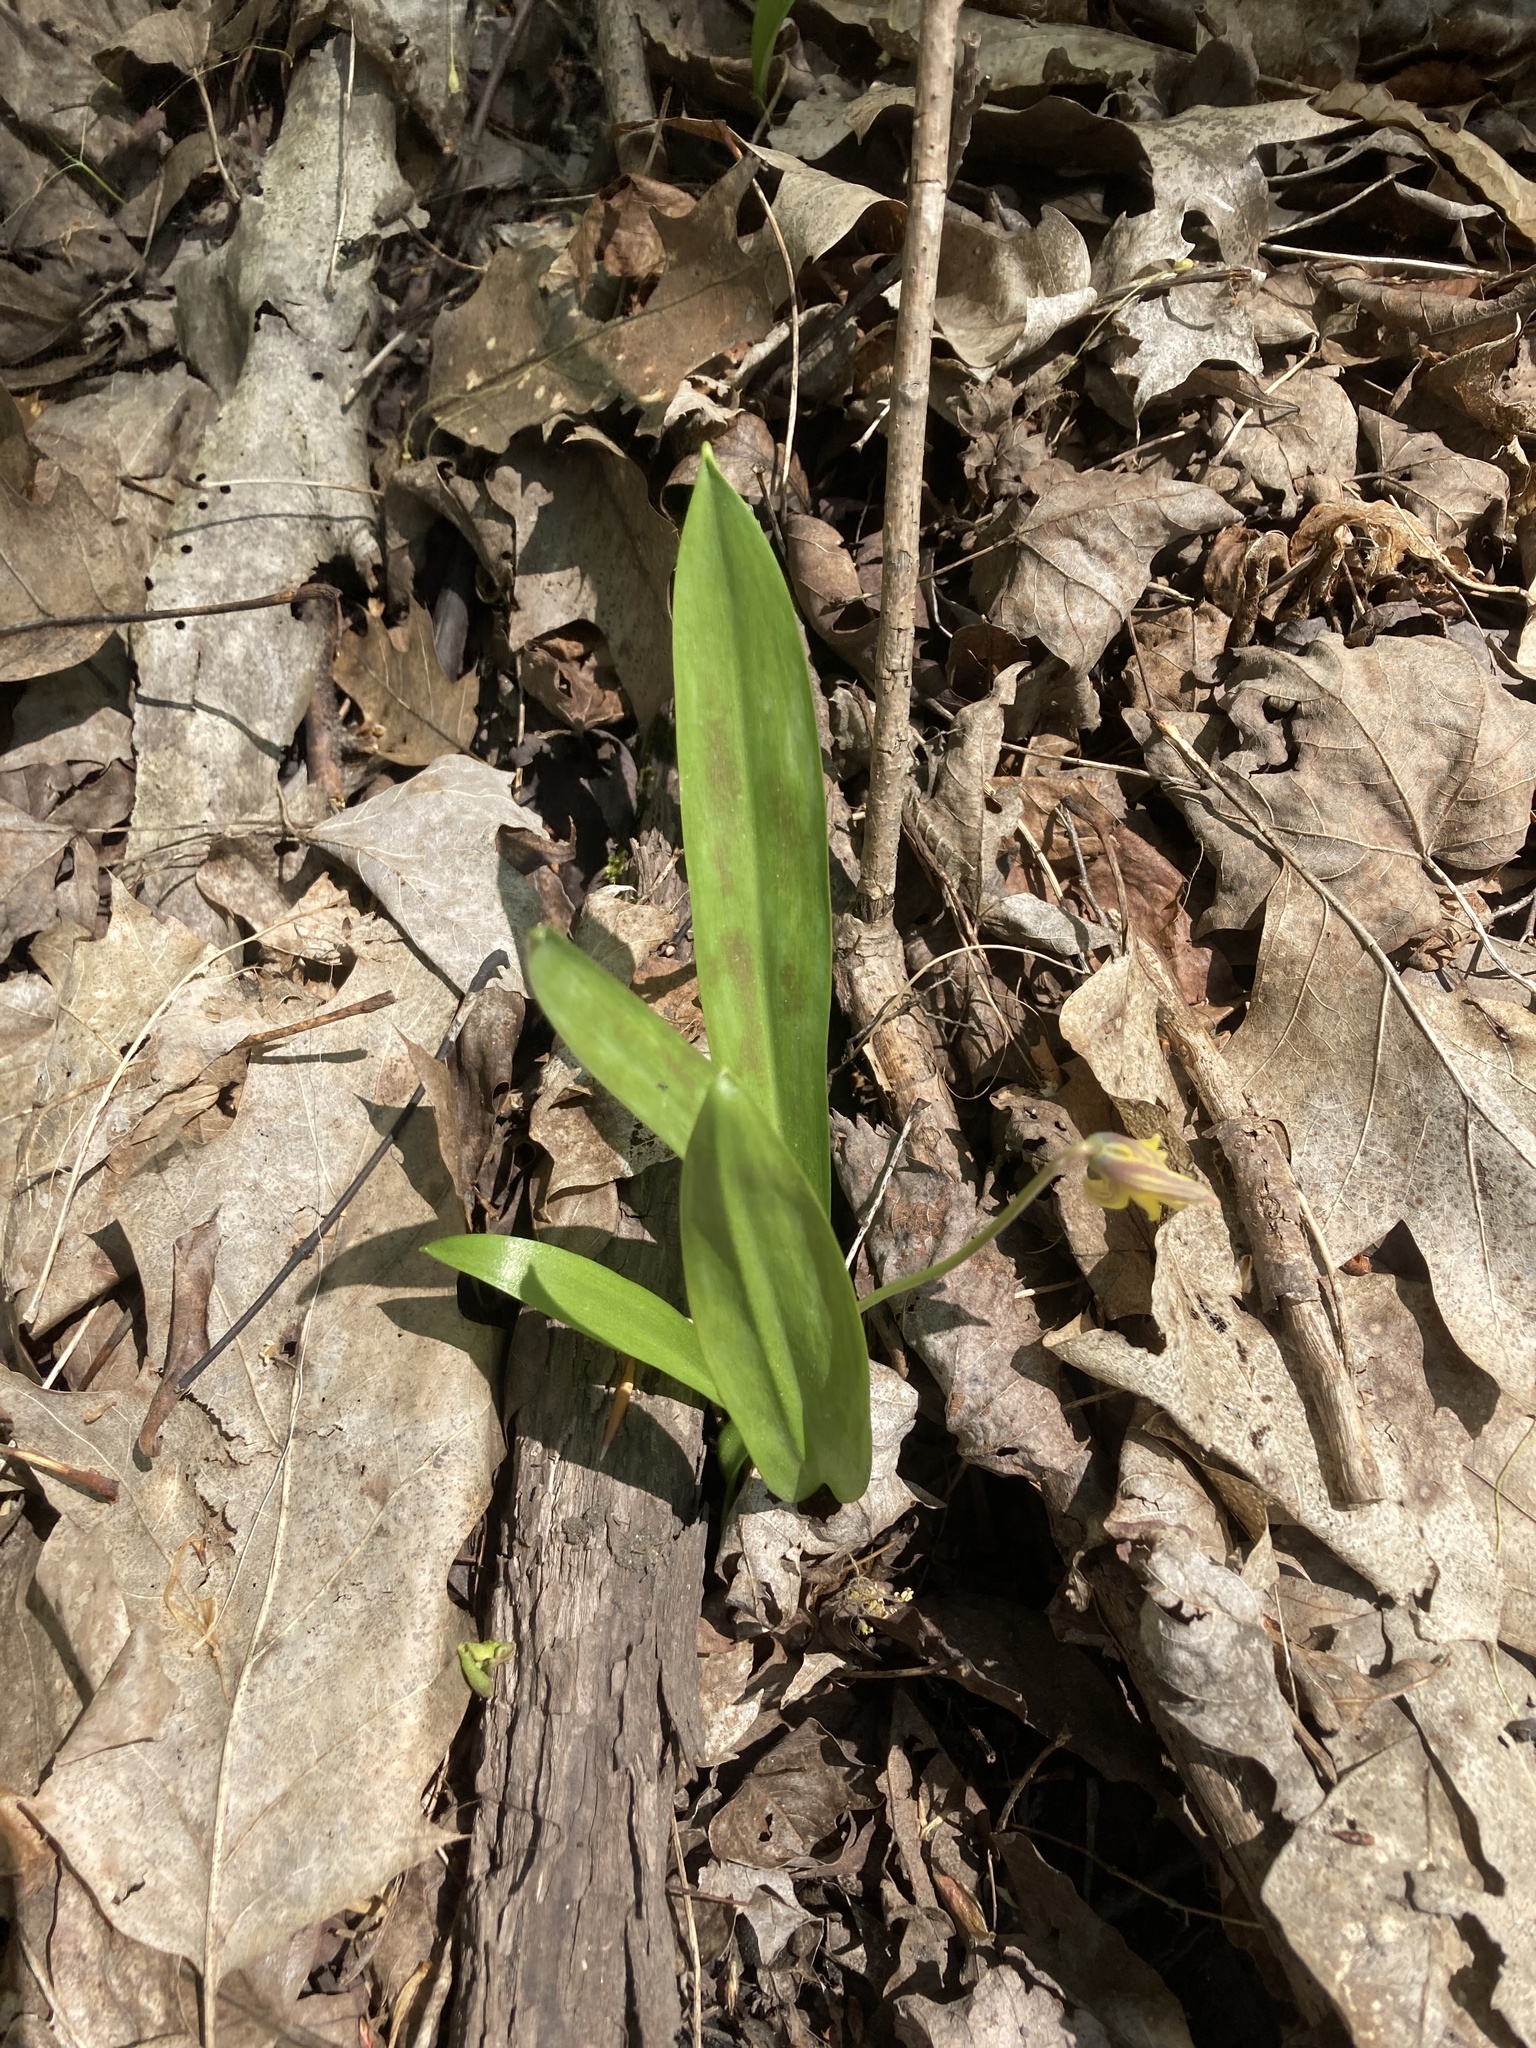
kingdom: Plantae
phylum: Tracheophyta
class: Liliopsida
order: Liliales
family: Liliaceae
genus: Erythronium
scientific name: Erythronium americanum
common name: Yellow adder's-tongue
